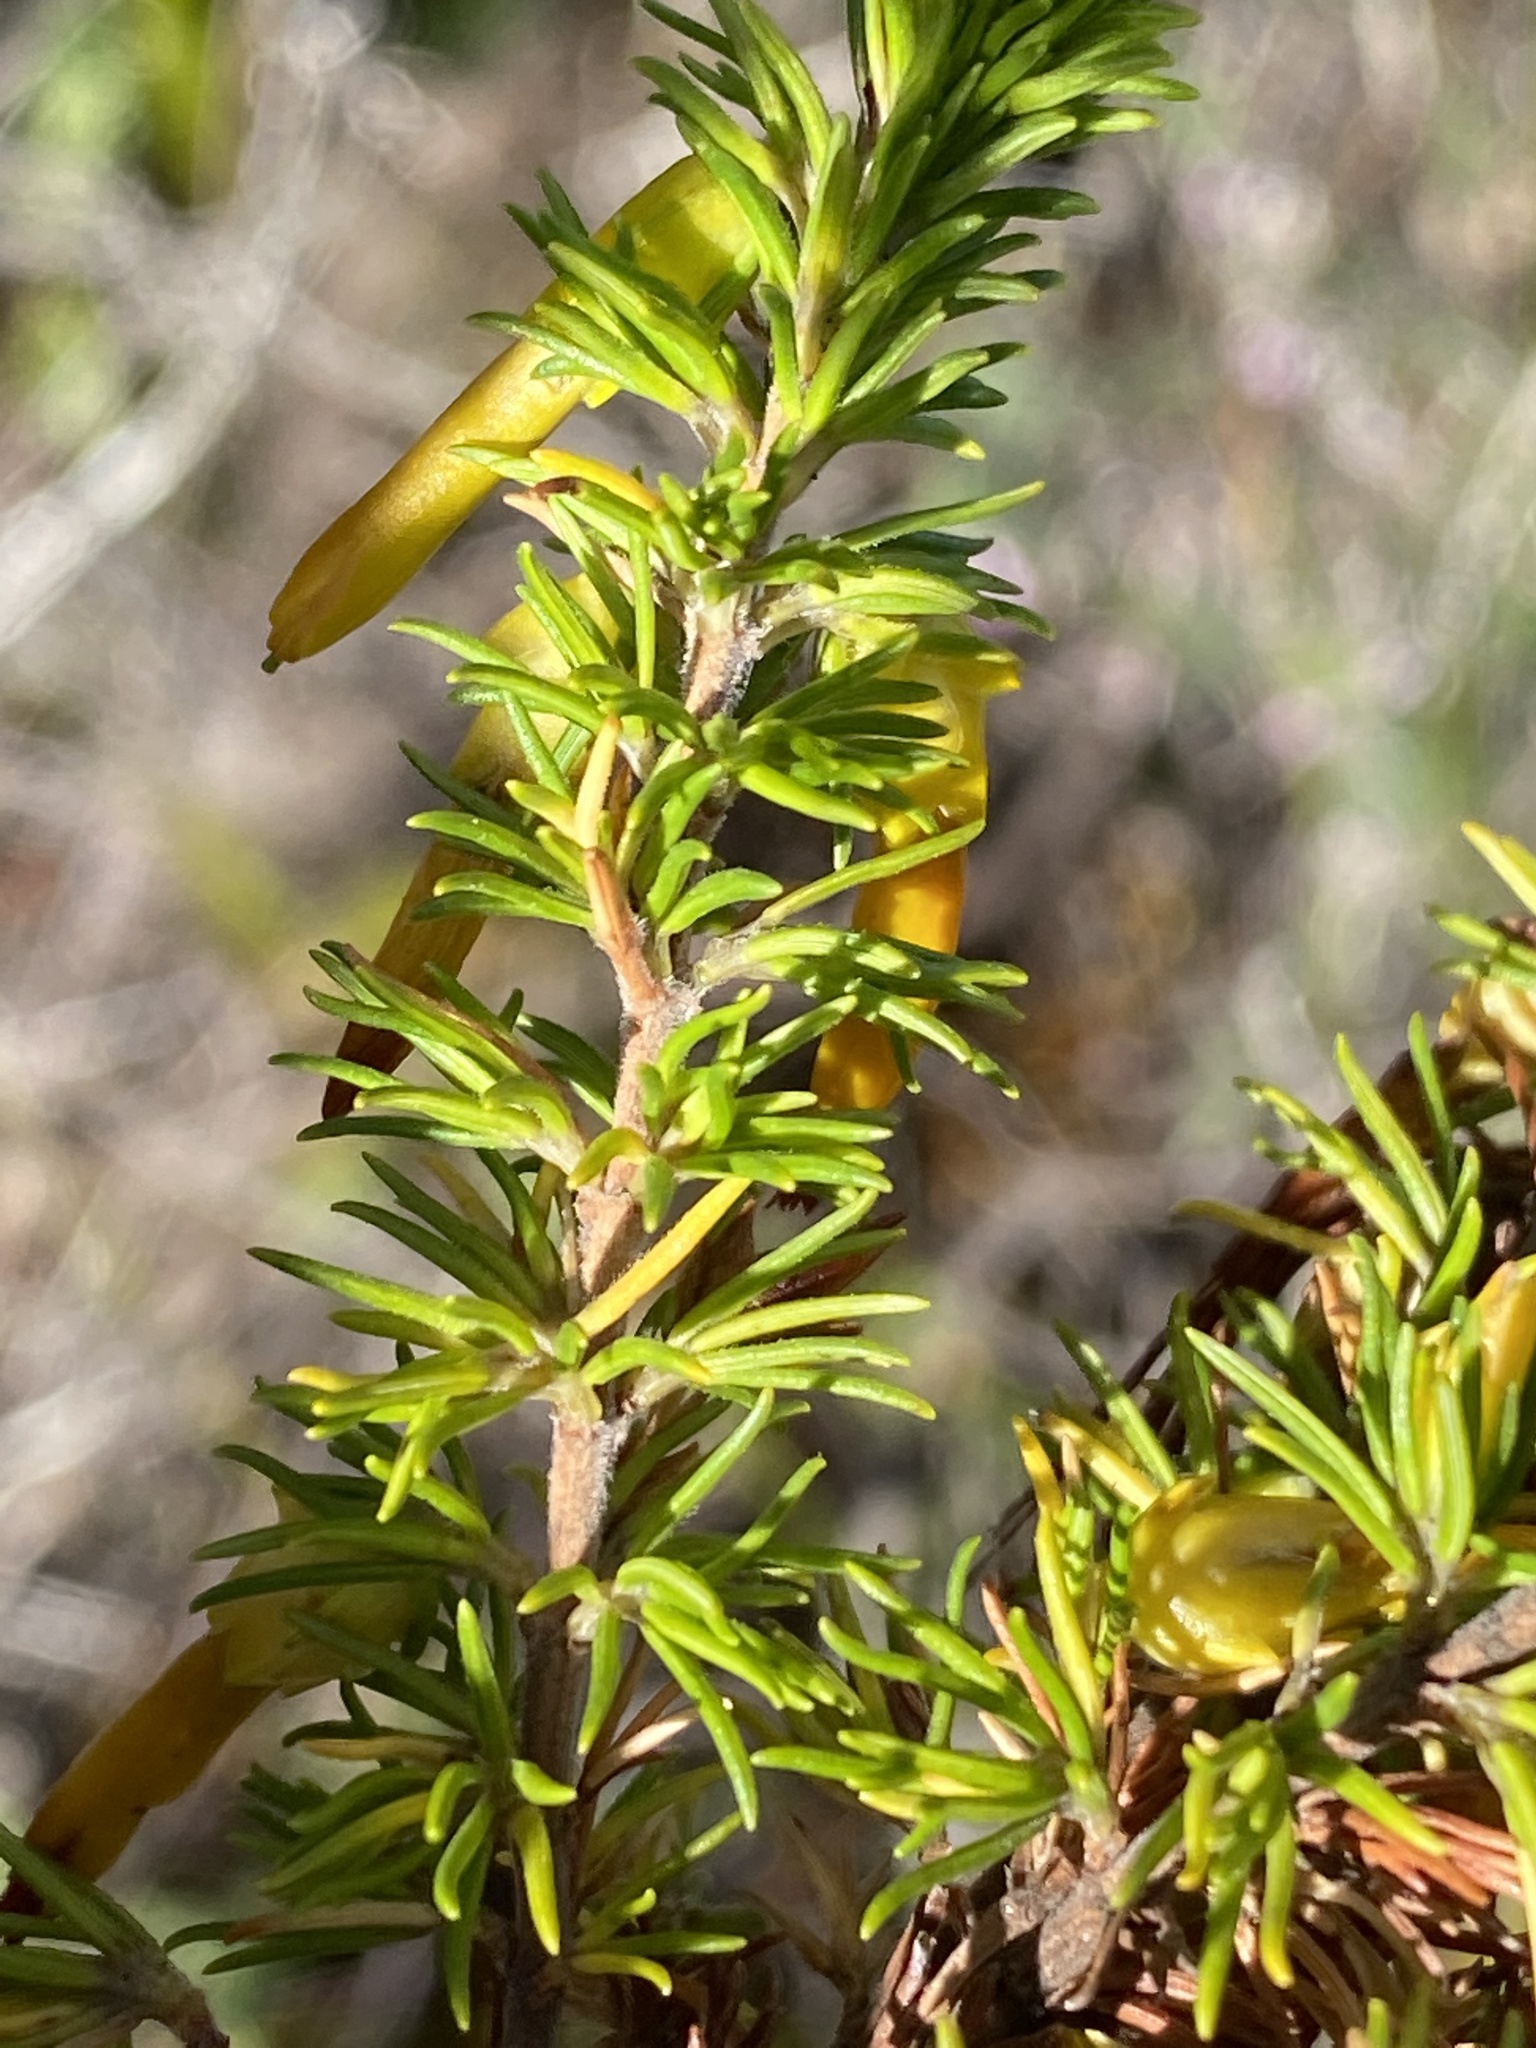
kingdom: Plantae
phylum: Tracheophyta
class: Magnoliopsida
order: Ericales
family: Ericaceae
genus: Erica
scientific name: Erica coccinea
